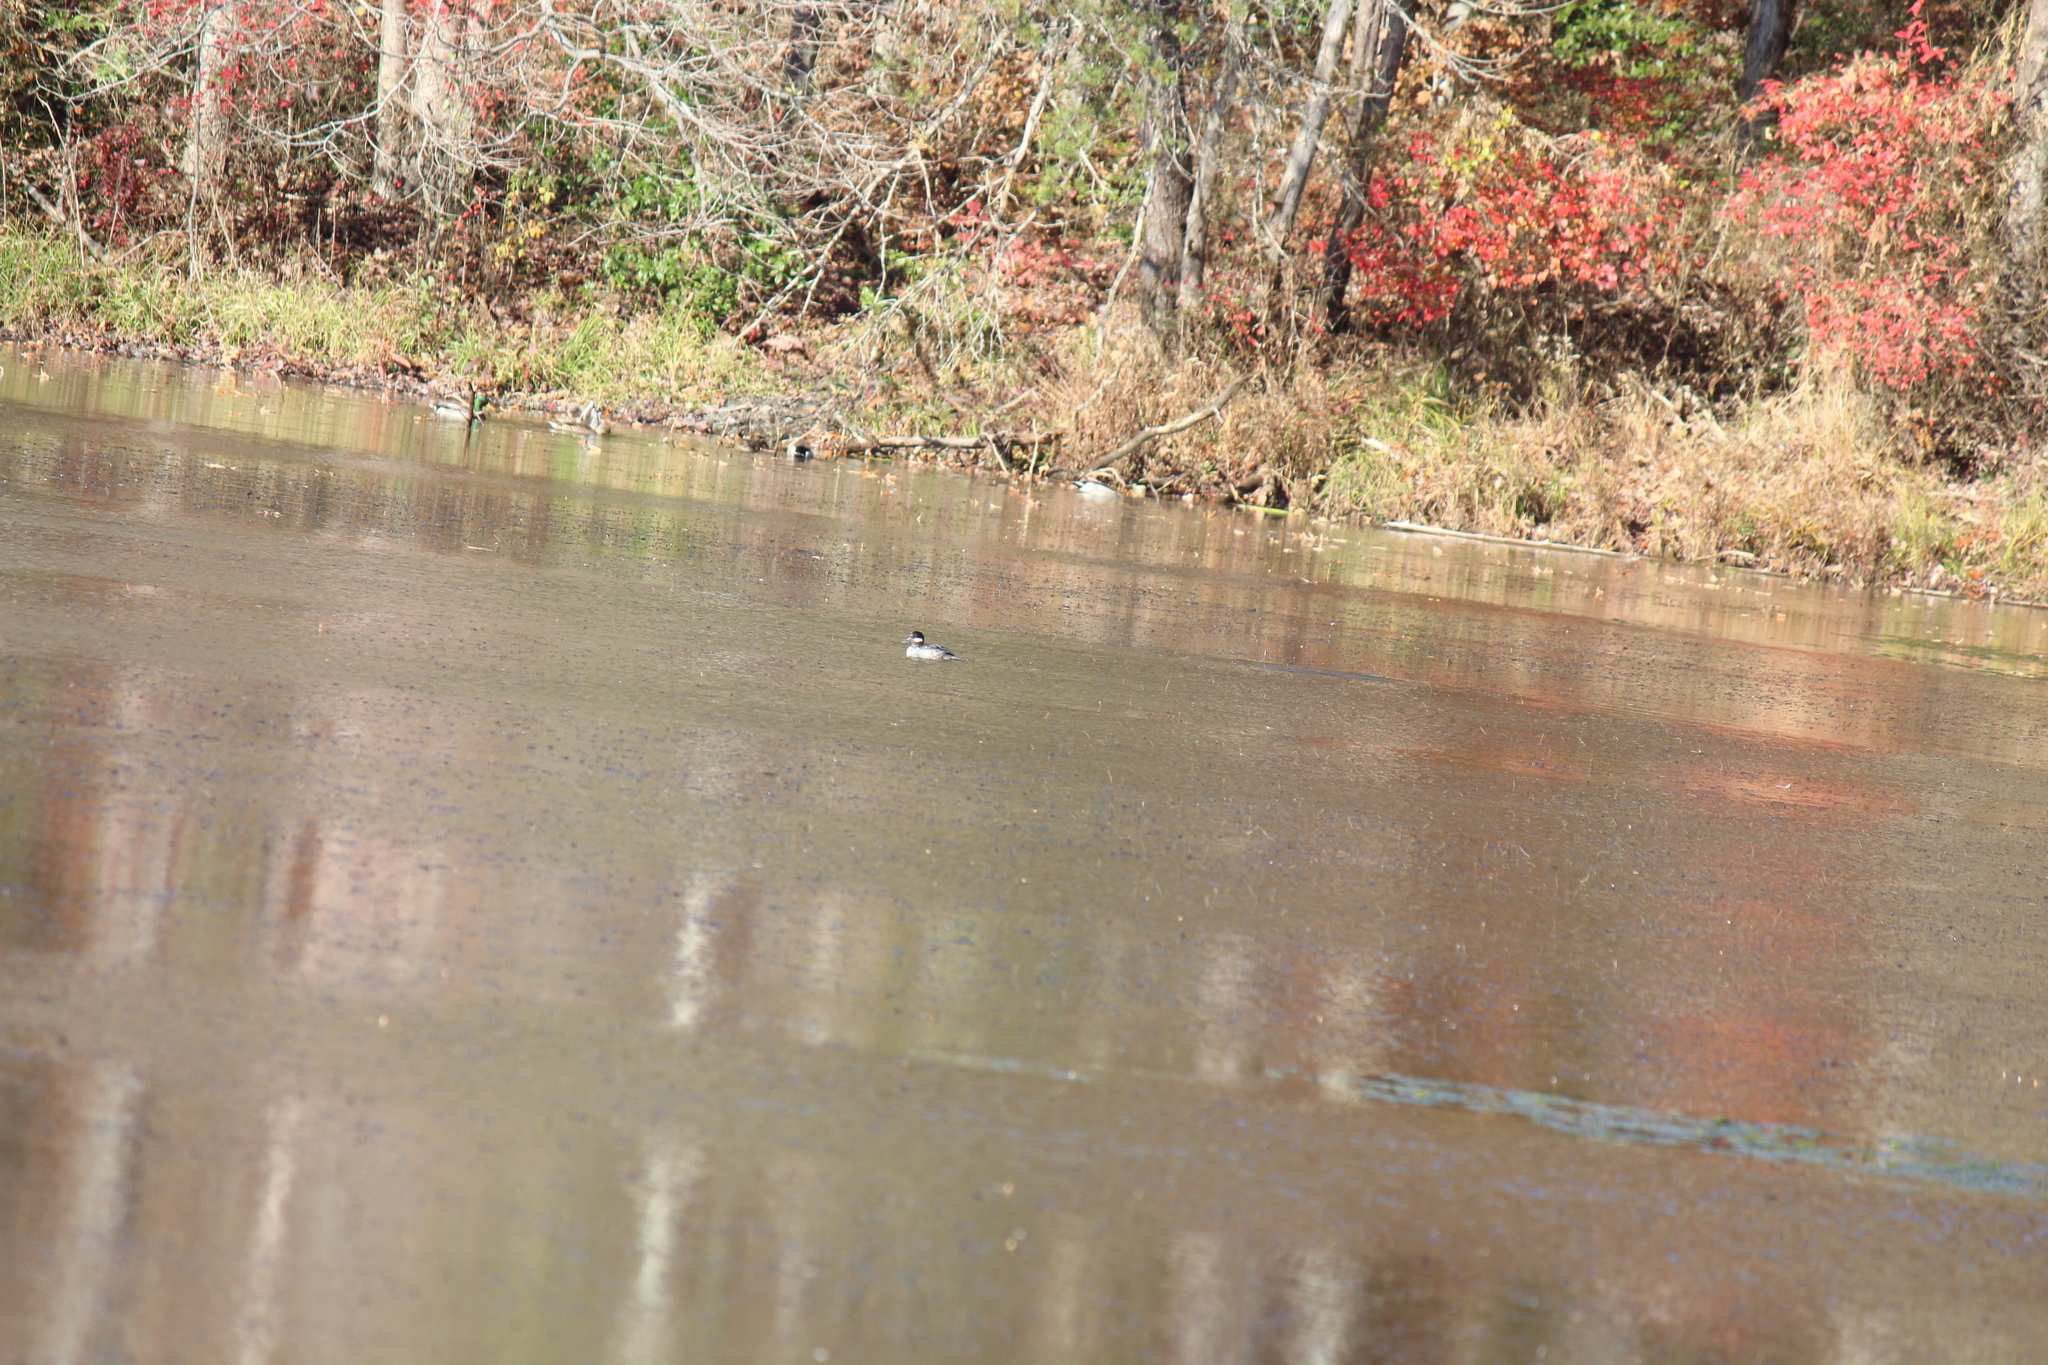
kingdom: Animalia
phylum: Chordata
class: Aves
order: Anseriformes
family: Anatidae
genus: Bucephala
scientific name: Bucephala albeola
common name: Bufflehead
